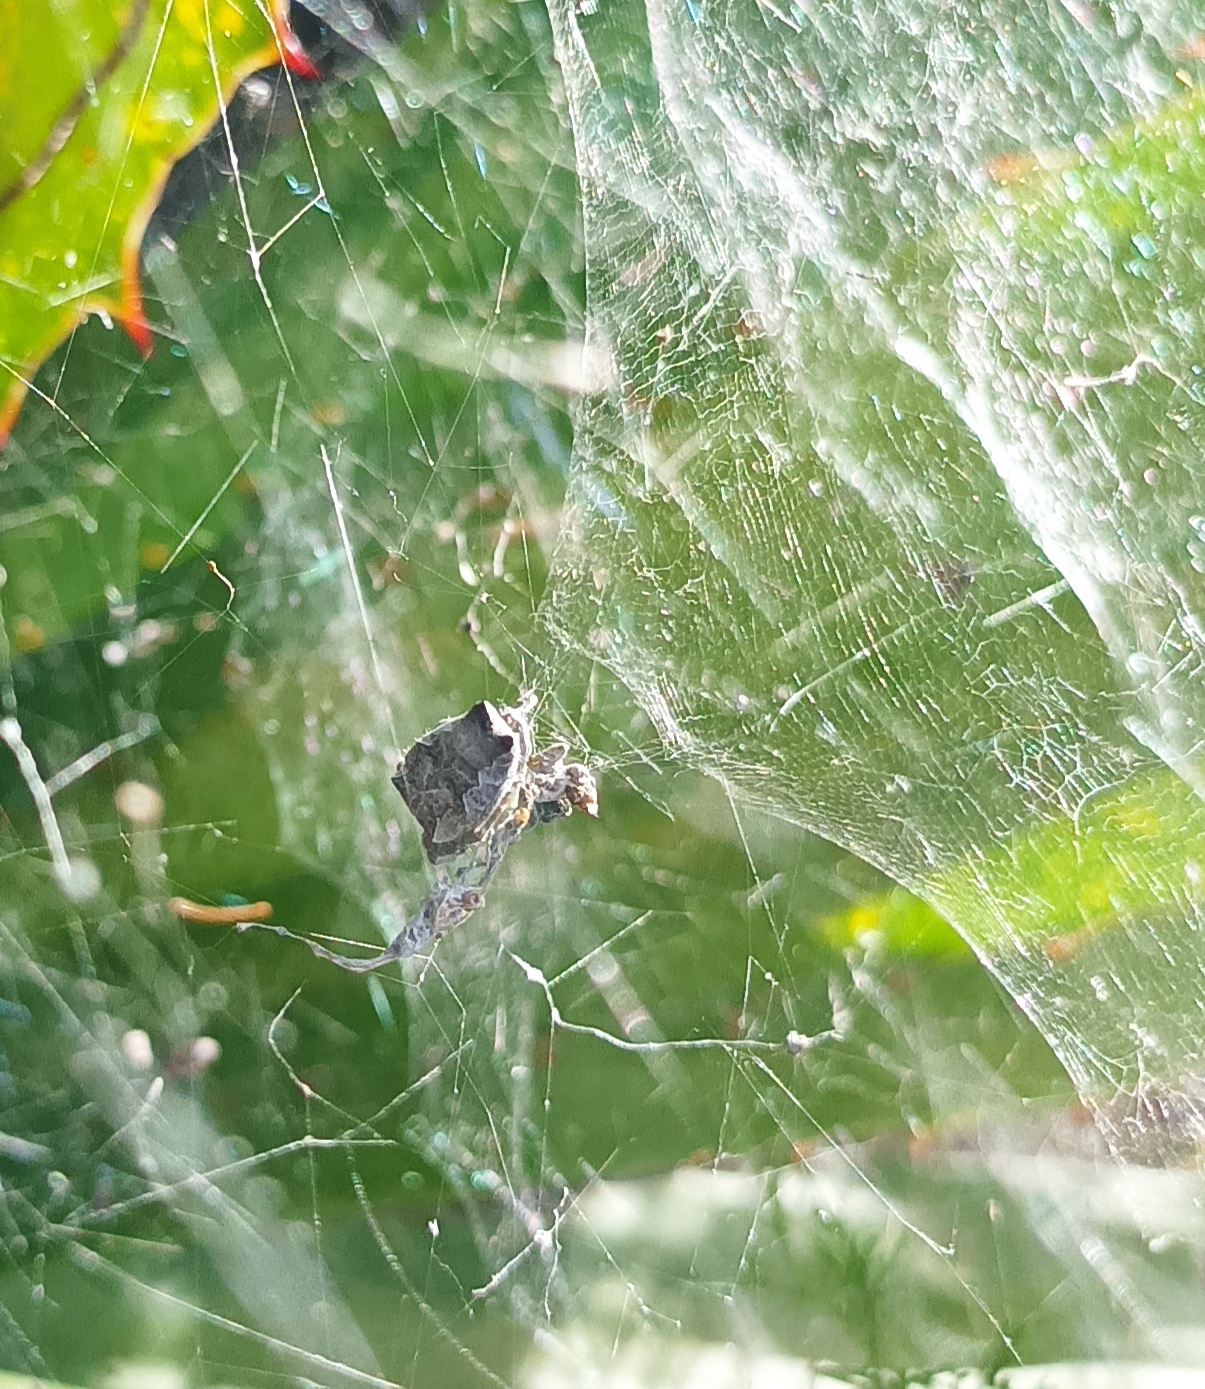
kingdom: Animalia
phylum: Arthropoda
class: Arachnida
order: Araneae
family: Araneidae
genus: Cyrtophora
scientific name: Cyrtophora citricola
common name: Orb weavers
